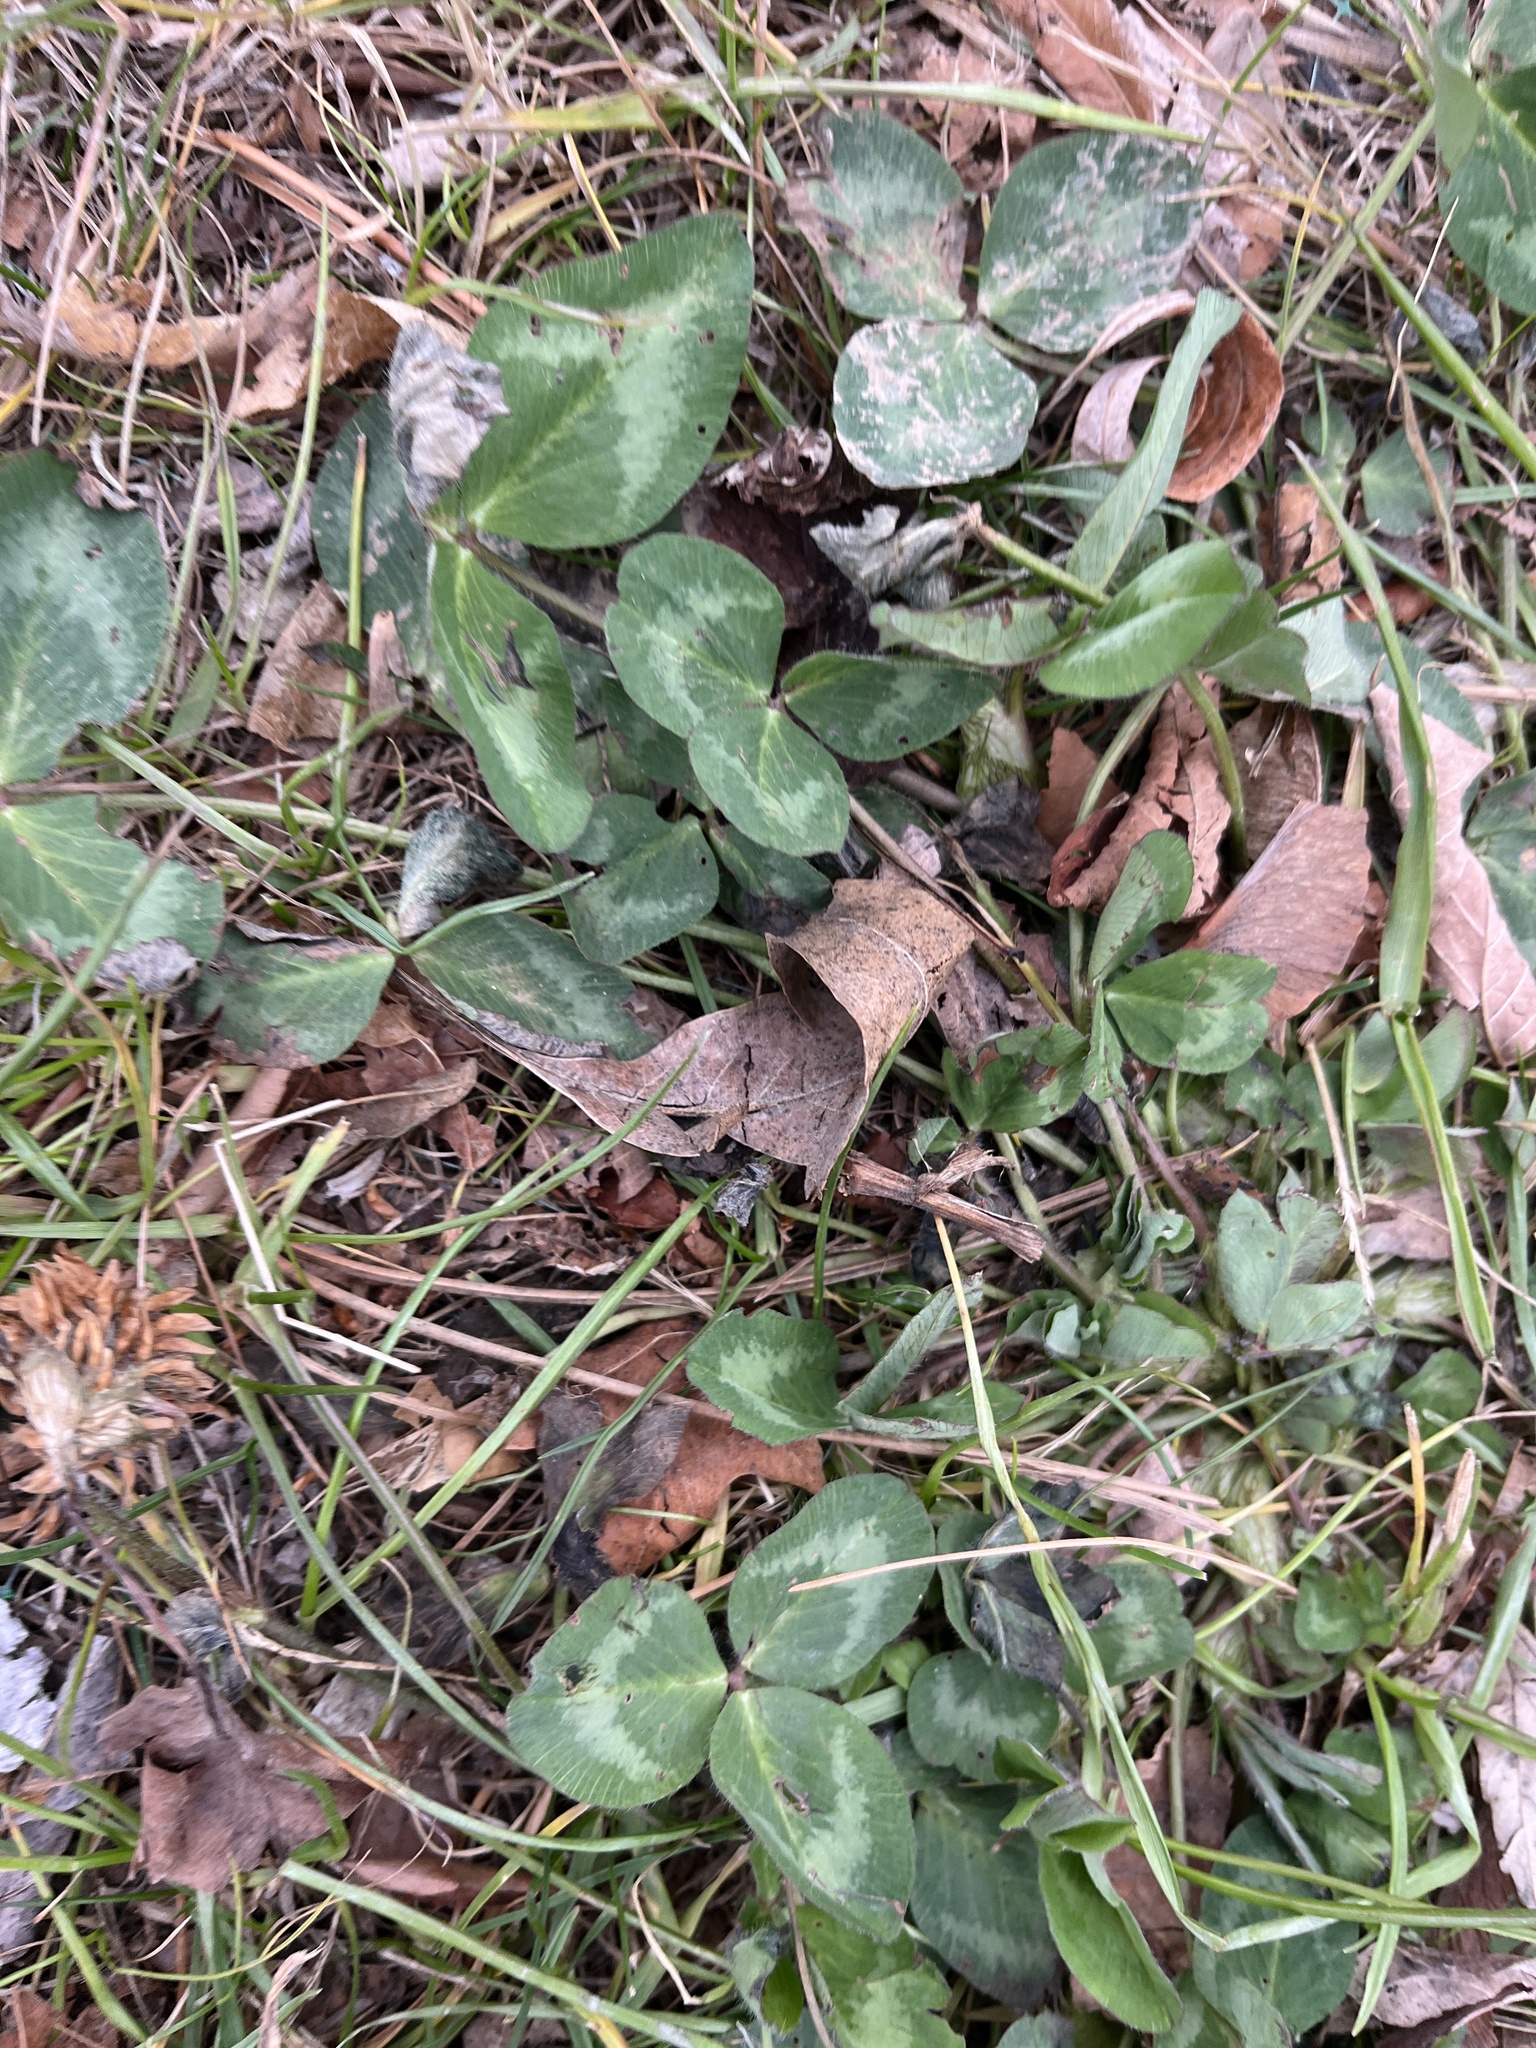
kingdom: Plantae
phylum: Tracheophyta
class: Magnoliopsida
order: Fabales
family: Fabaceae
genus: Trifolium
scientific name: Trifolium repens
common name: White clover
